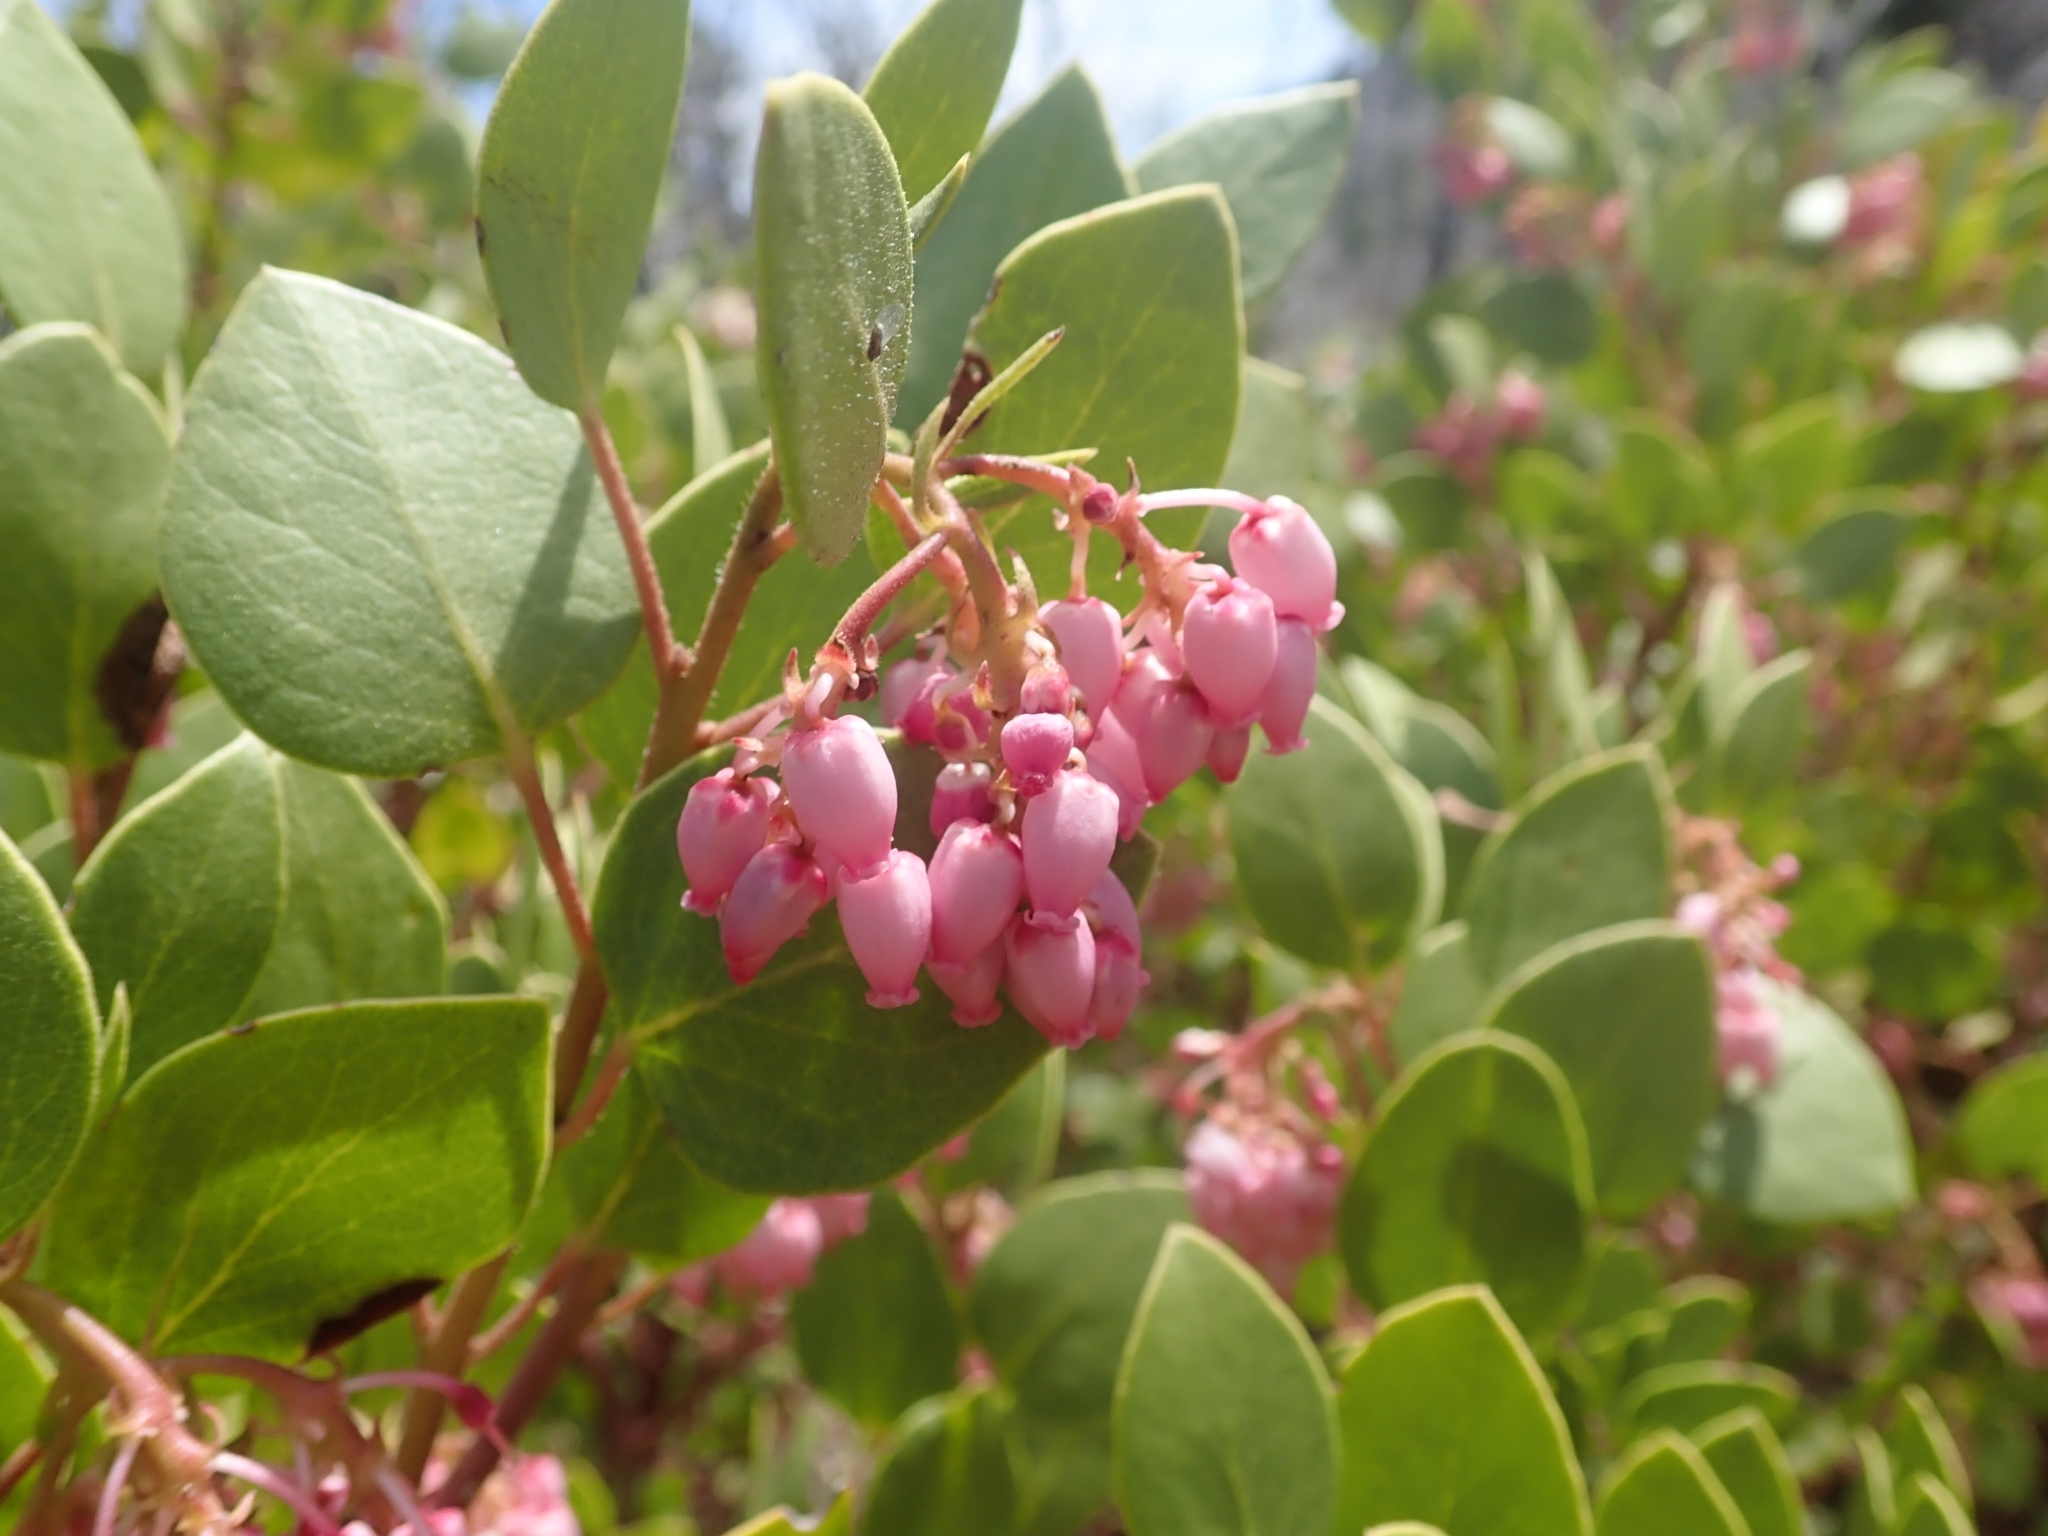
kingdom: Plantae
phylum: Tracheophyta
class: Magnoliopsida
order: Ericales
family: Ericaceae
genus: Arctostaphylos
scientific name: Arctostaphylos patula
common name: Green-leaf manzanita
